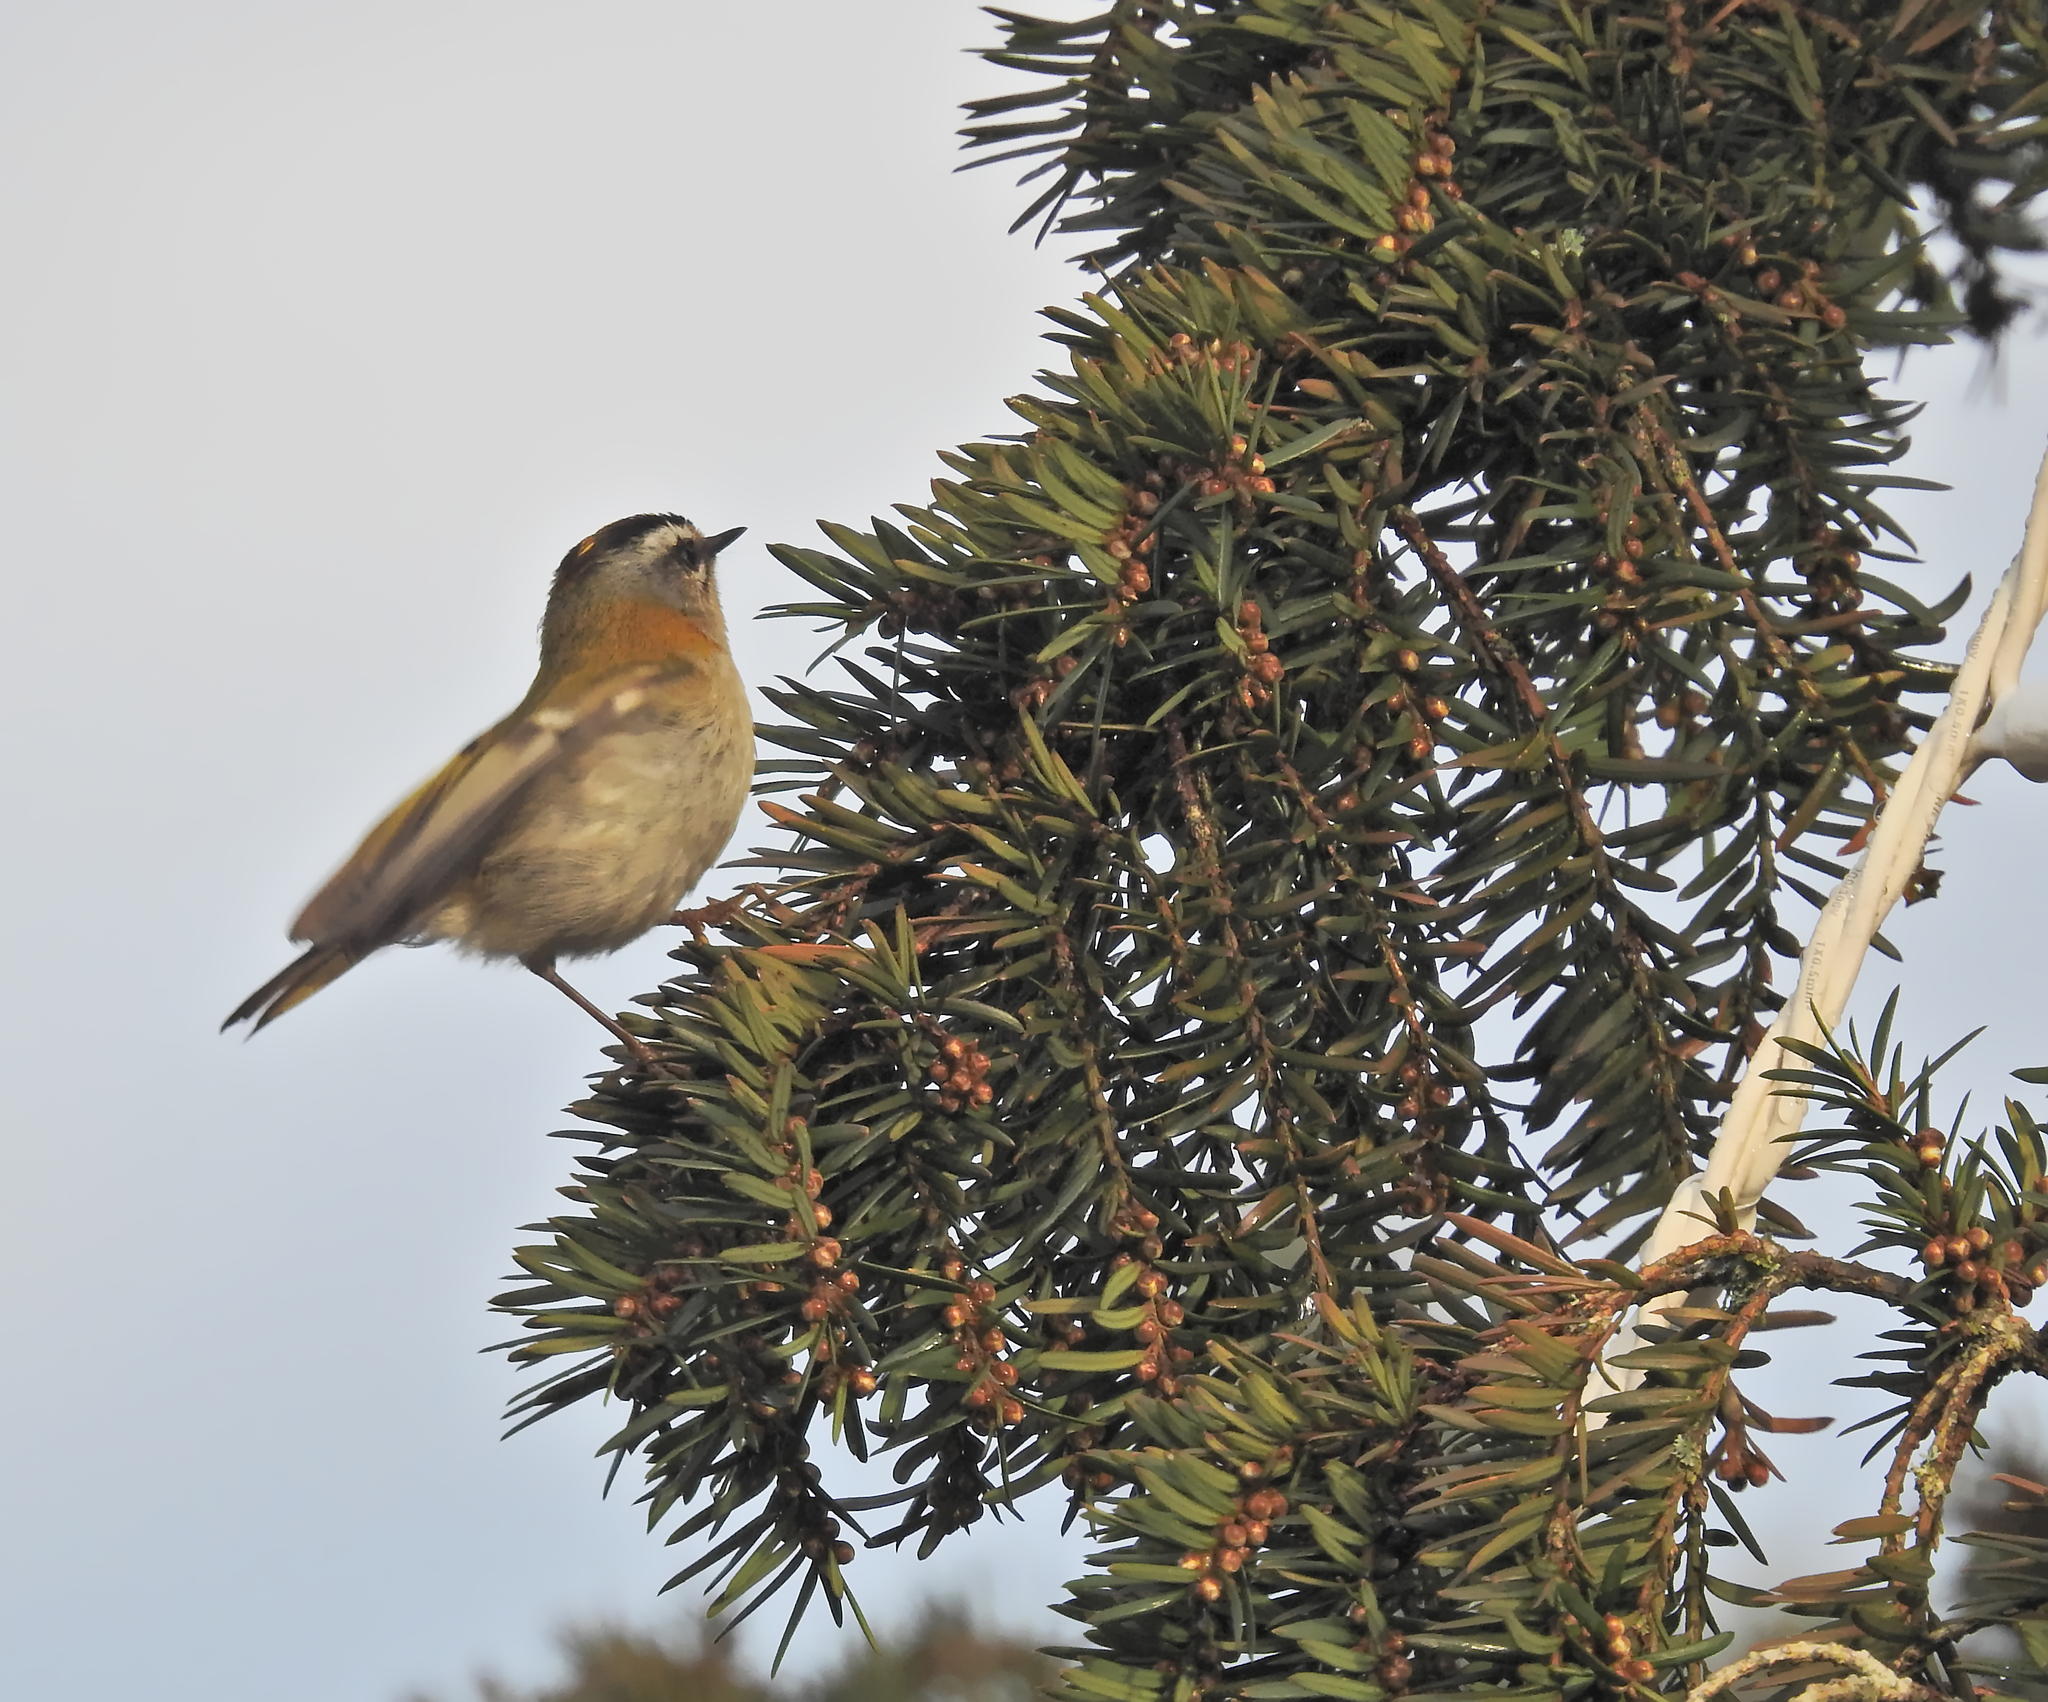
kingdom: Animalia
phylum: Chordata
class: Aves
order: Passeriformes
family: Regulidae
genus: Regulus
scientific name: Regulus ignicapilla
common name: Firecrest
